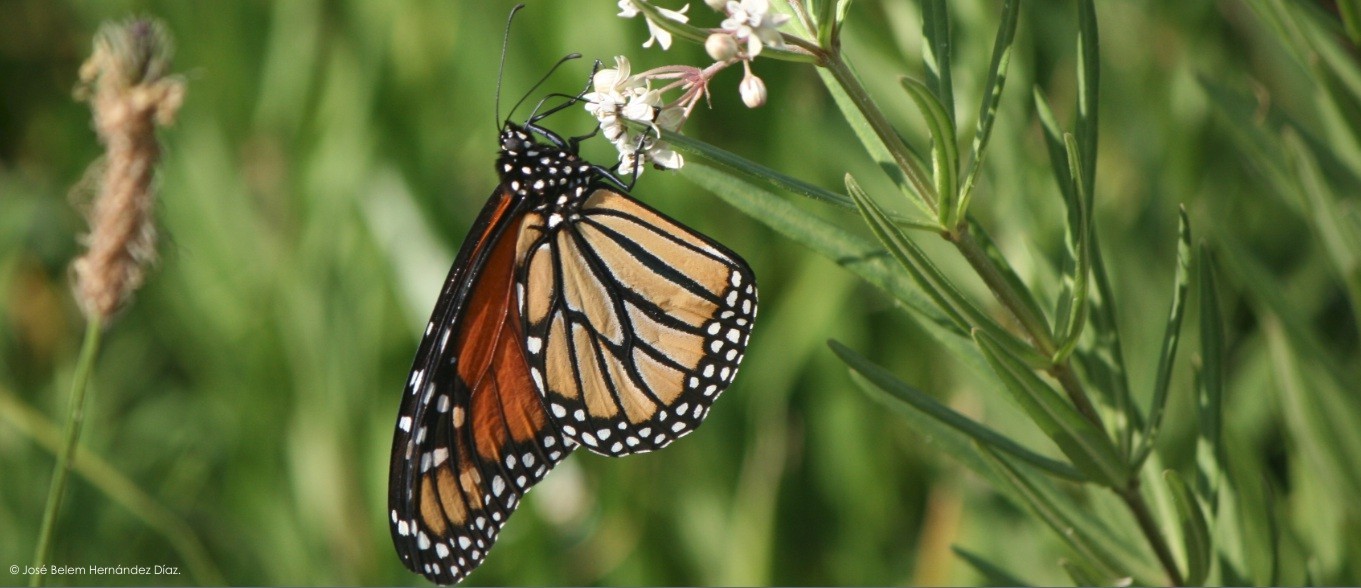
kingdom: Animalia
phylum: Arthropoda
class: Insecta
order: Lepidoptera
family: Nymphalidae
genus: Danaus
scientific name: Danaus plexippus
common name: Monarch
